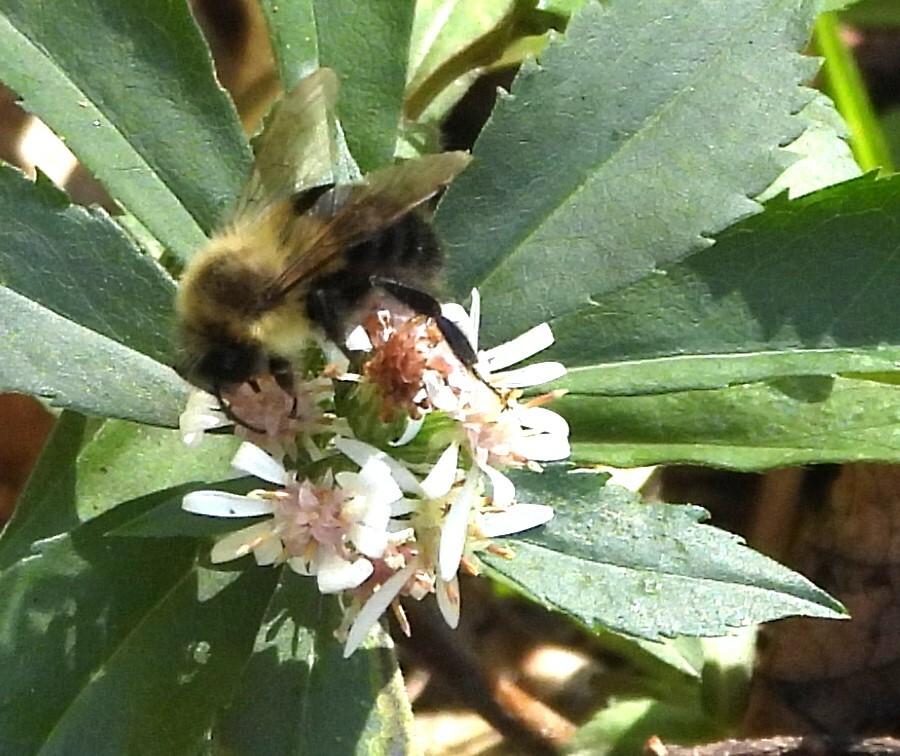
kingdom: Animalia
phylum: Arthropoda
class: Insecta
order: Hymenoptera
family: Apidae
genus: Bombus
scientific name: Bombus impatiens
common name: Common eastern bumble bee
